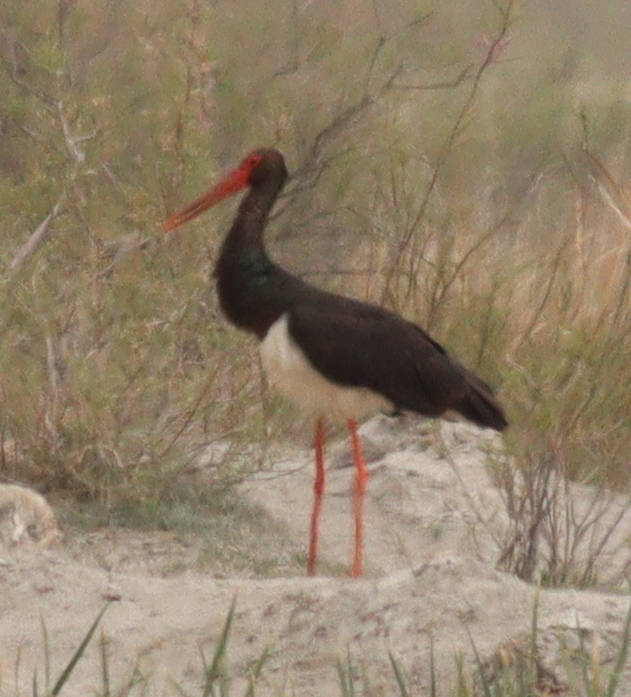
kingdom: Animalia
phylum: Chordata
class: Aves
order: Ciconiiformes
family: Ciconiidae
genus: Ciconia
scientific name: Ciconia nigra
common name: Black stork
